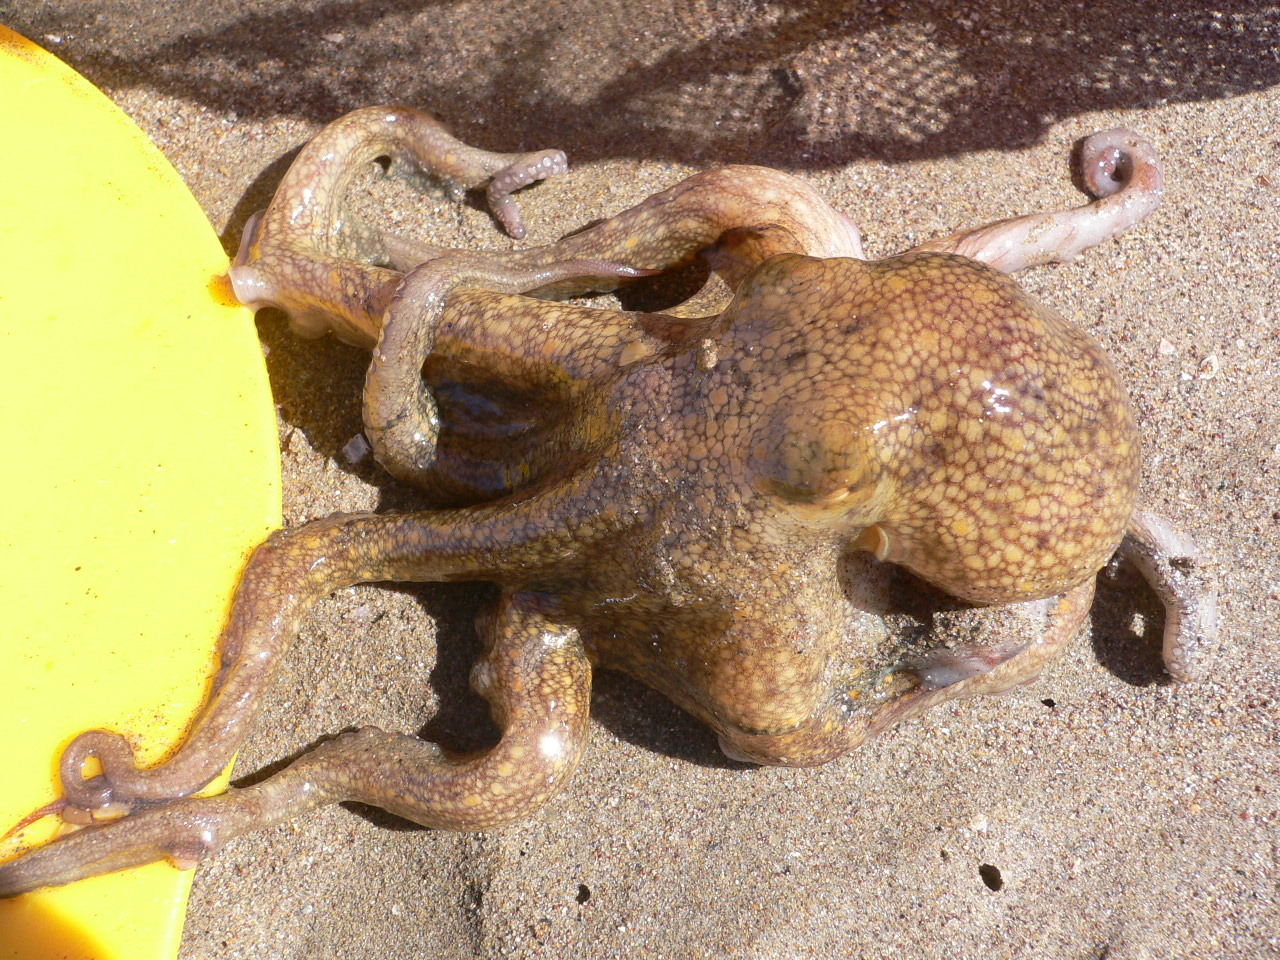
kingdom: Animalia
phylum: Mollusca
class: Cephalopoda
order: Octopoda
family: Octopodidae
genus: Octopus
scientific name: Octopus vulgaris
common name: Common octopus
